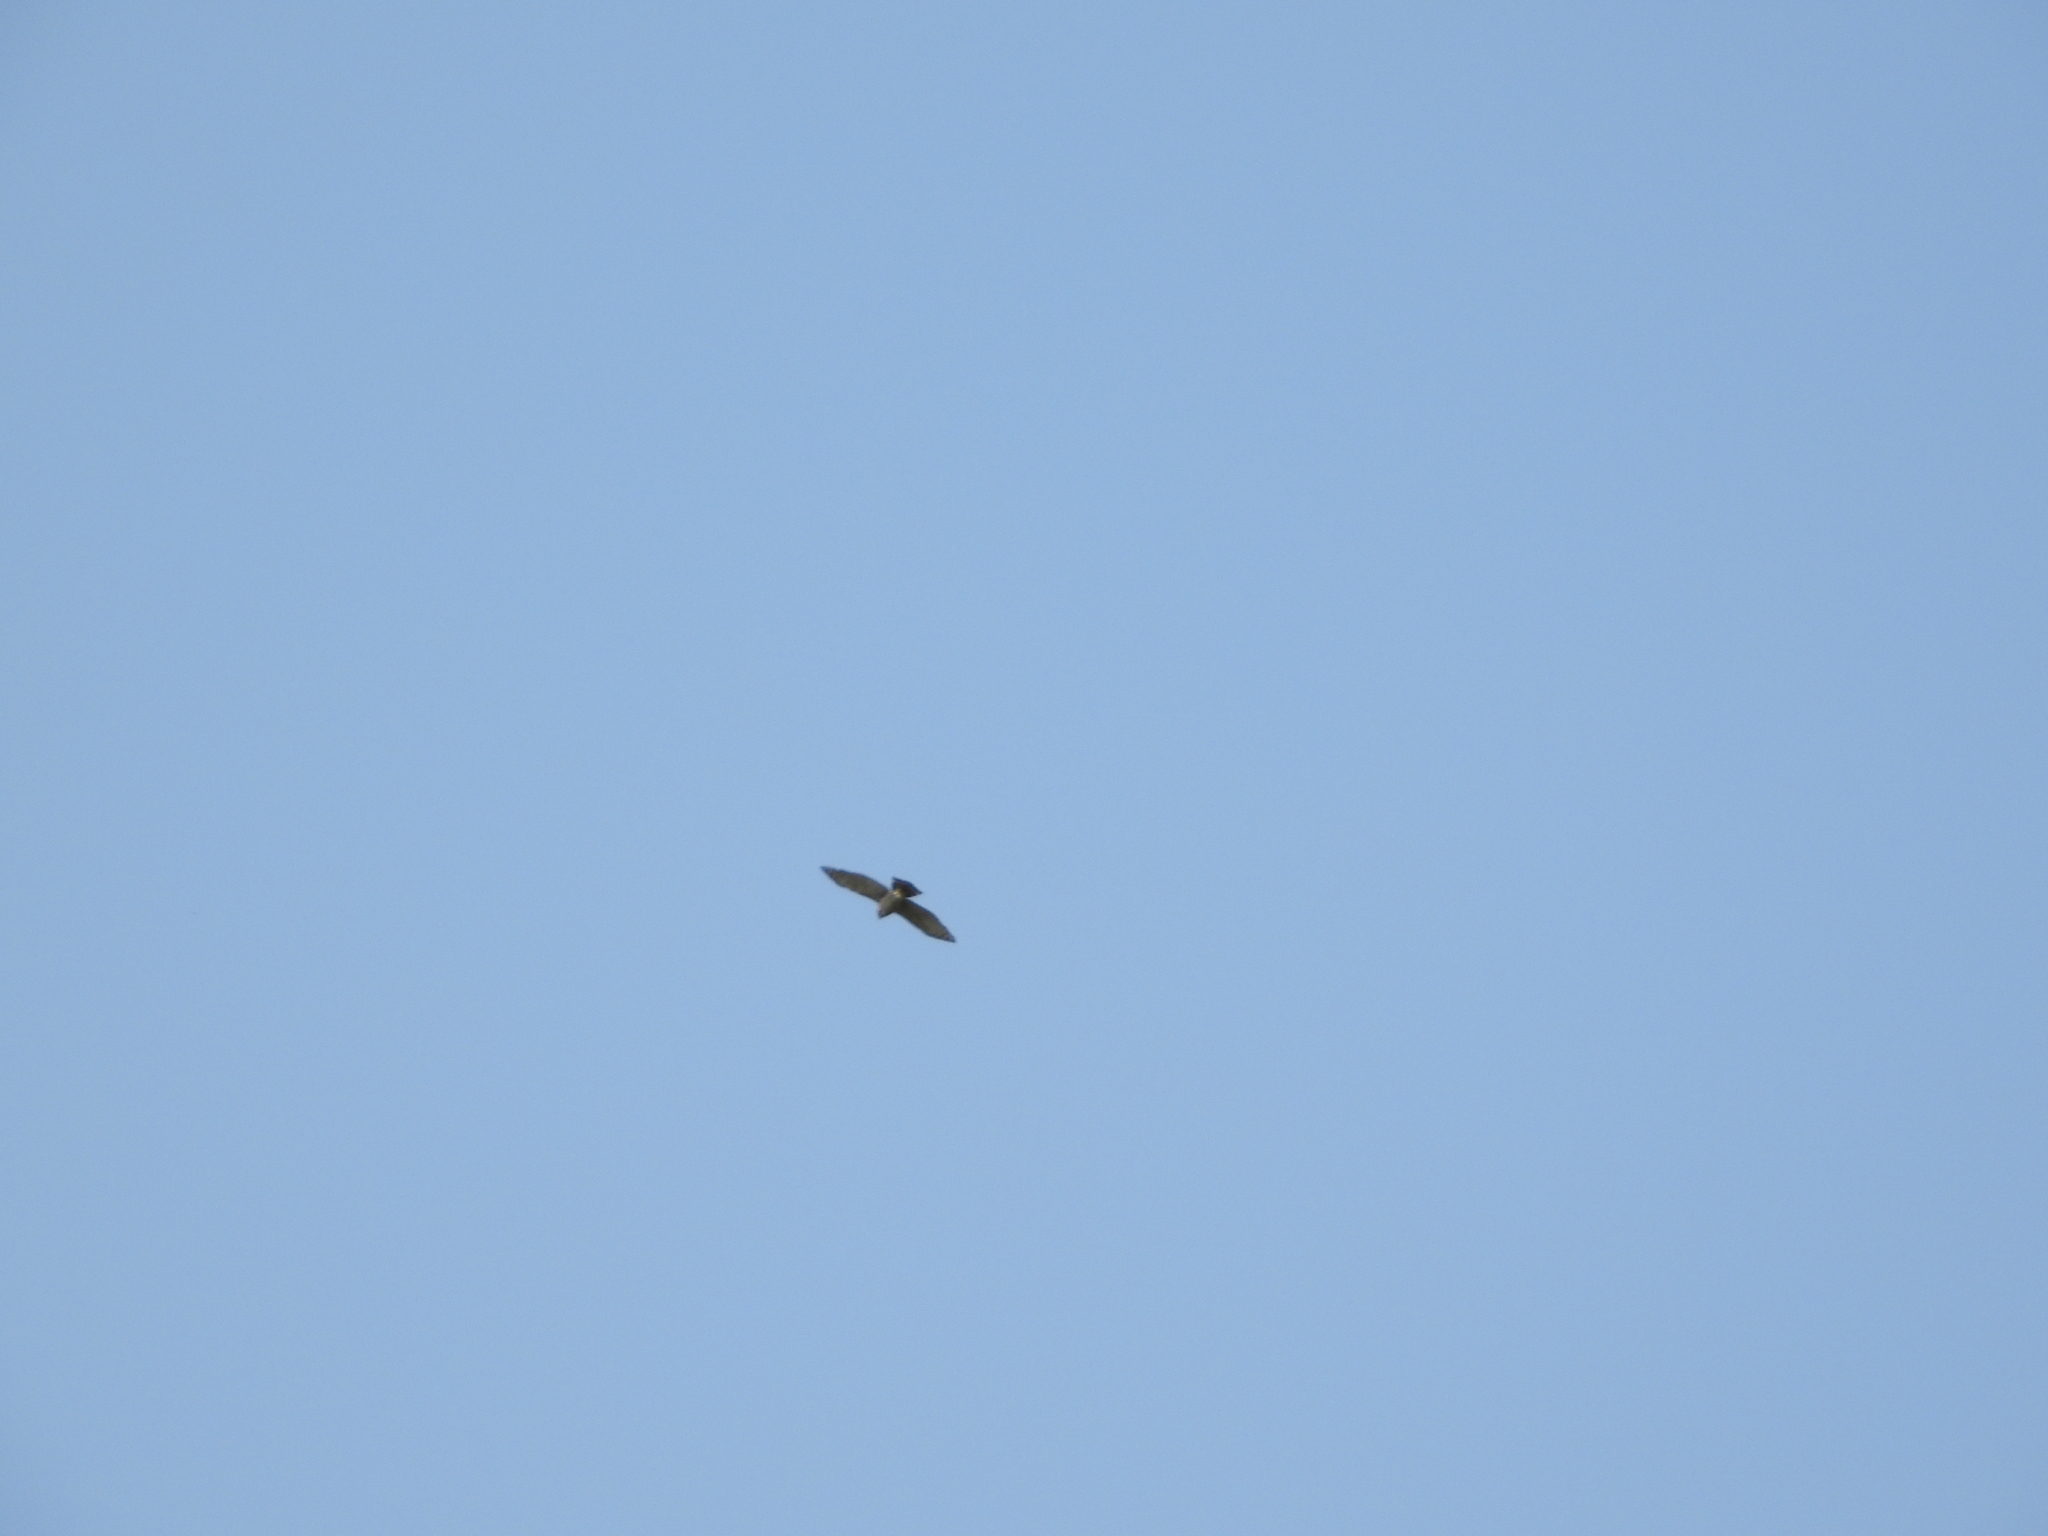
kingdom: Animalia
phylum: Chordata
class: Aves
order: Accipitriformes
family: Accipitridae
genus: Accipiter
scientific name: Accipiter trivirgatus
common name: Crested goshawk
